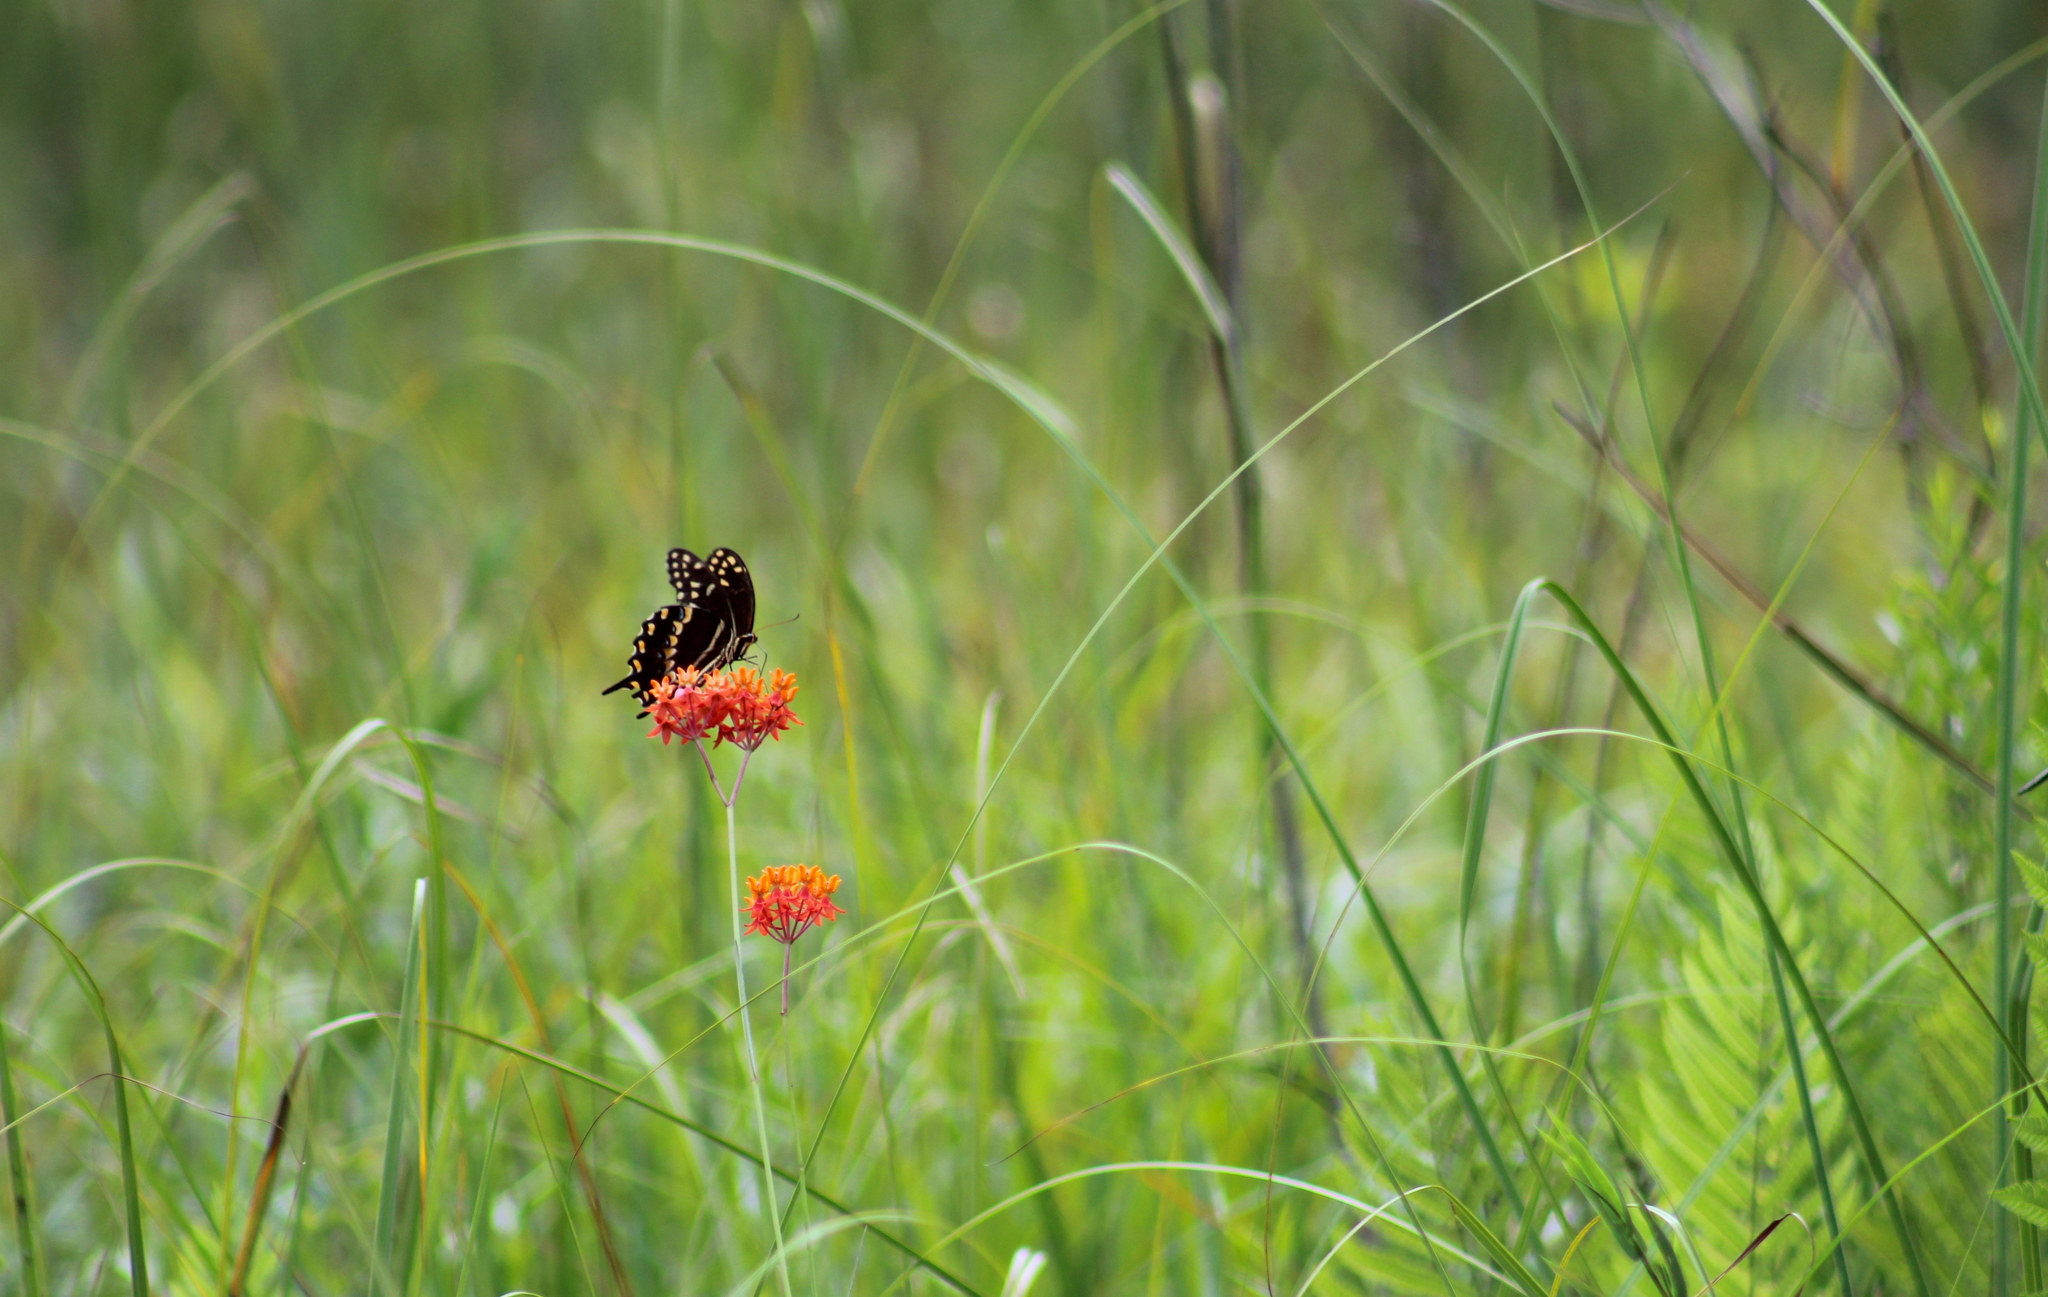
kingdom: Animalia
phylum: Arthropoda
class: Insecta
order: Lepidoptera
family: Papilionidae
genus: Papilio
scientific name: Papilio palamedes
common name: Palamedes swallowtail
